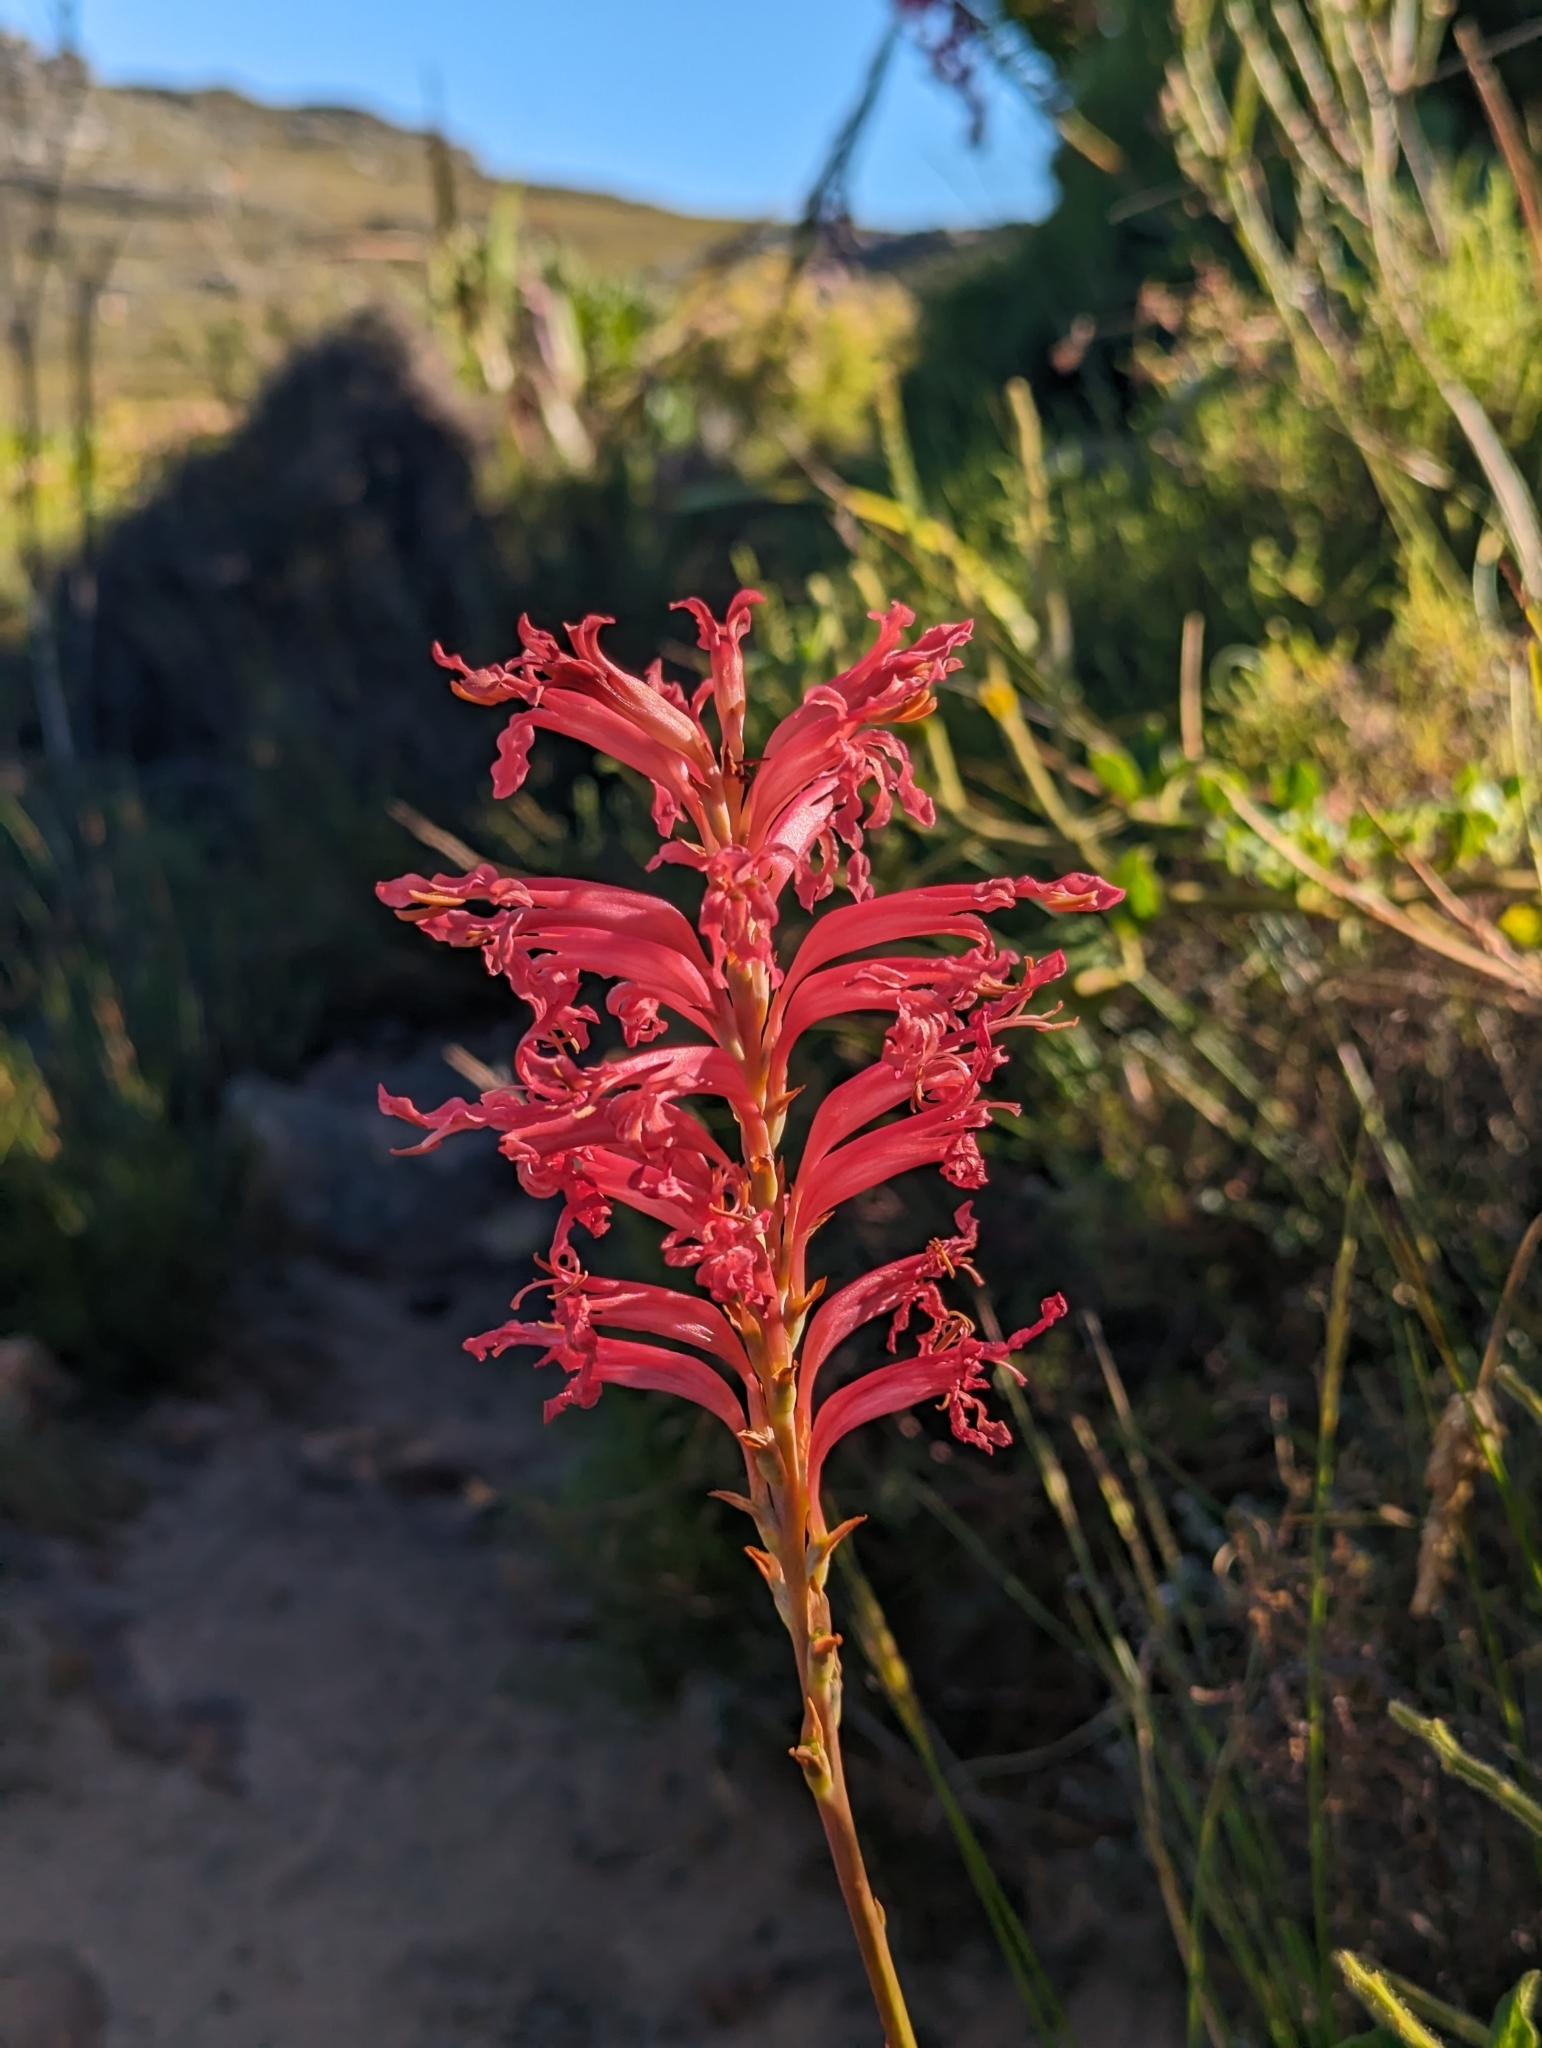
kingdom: Plantae
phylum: Tracheophyta
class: Liliopsida
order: Asparagales
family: Iridaceae
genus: Tritoniopsis
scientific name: Tritoniopsis antholyza
